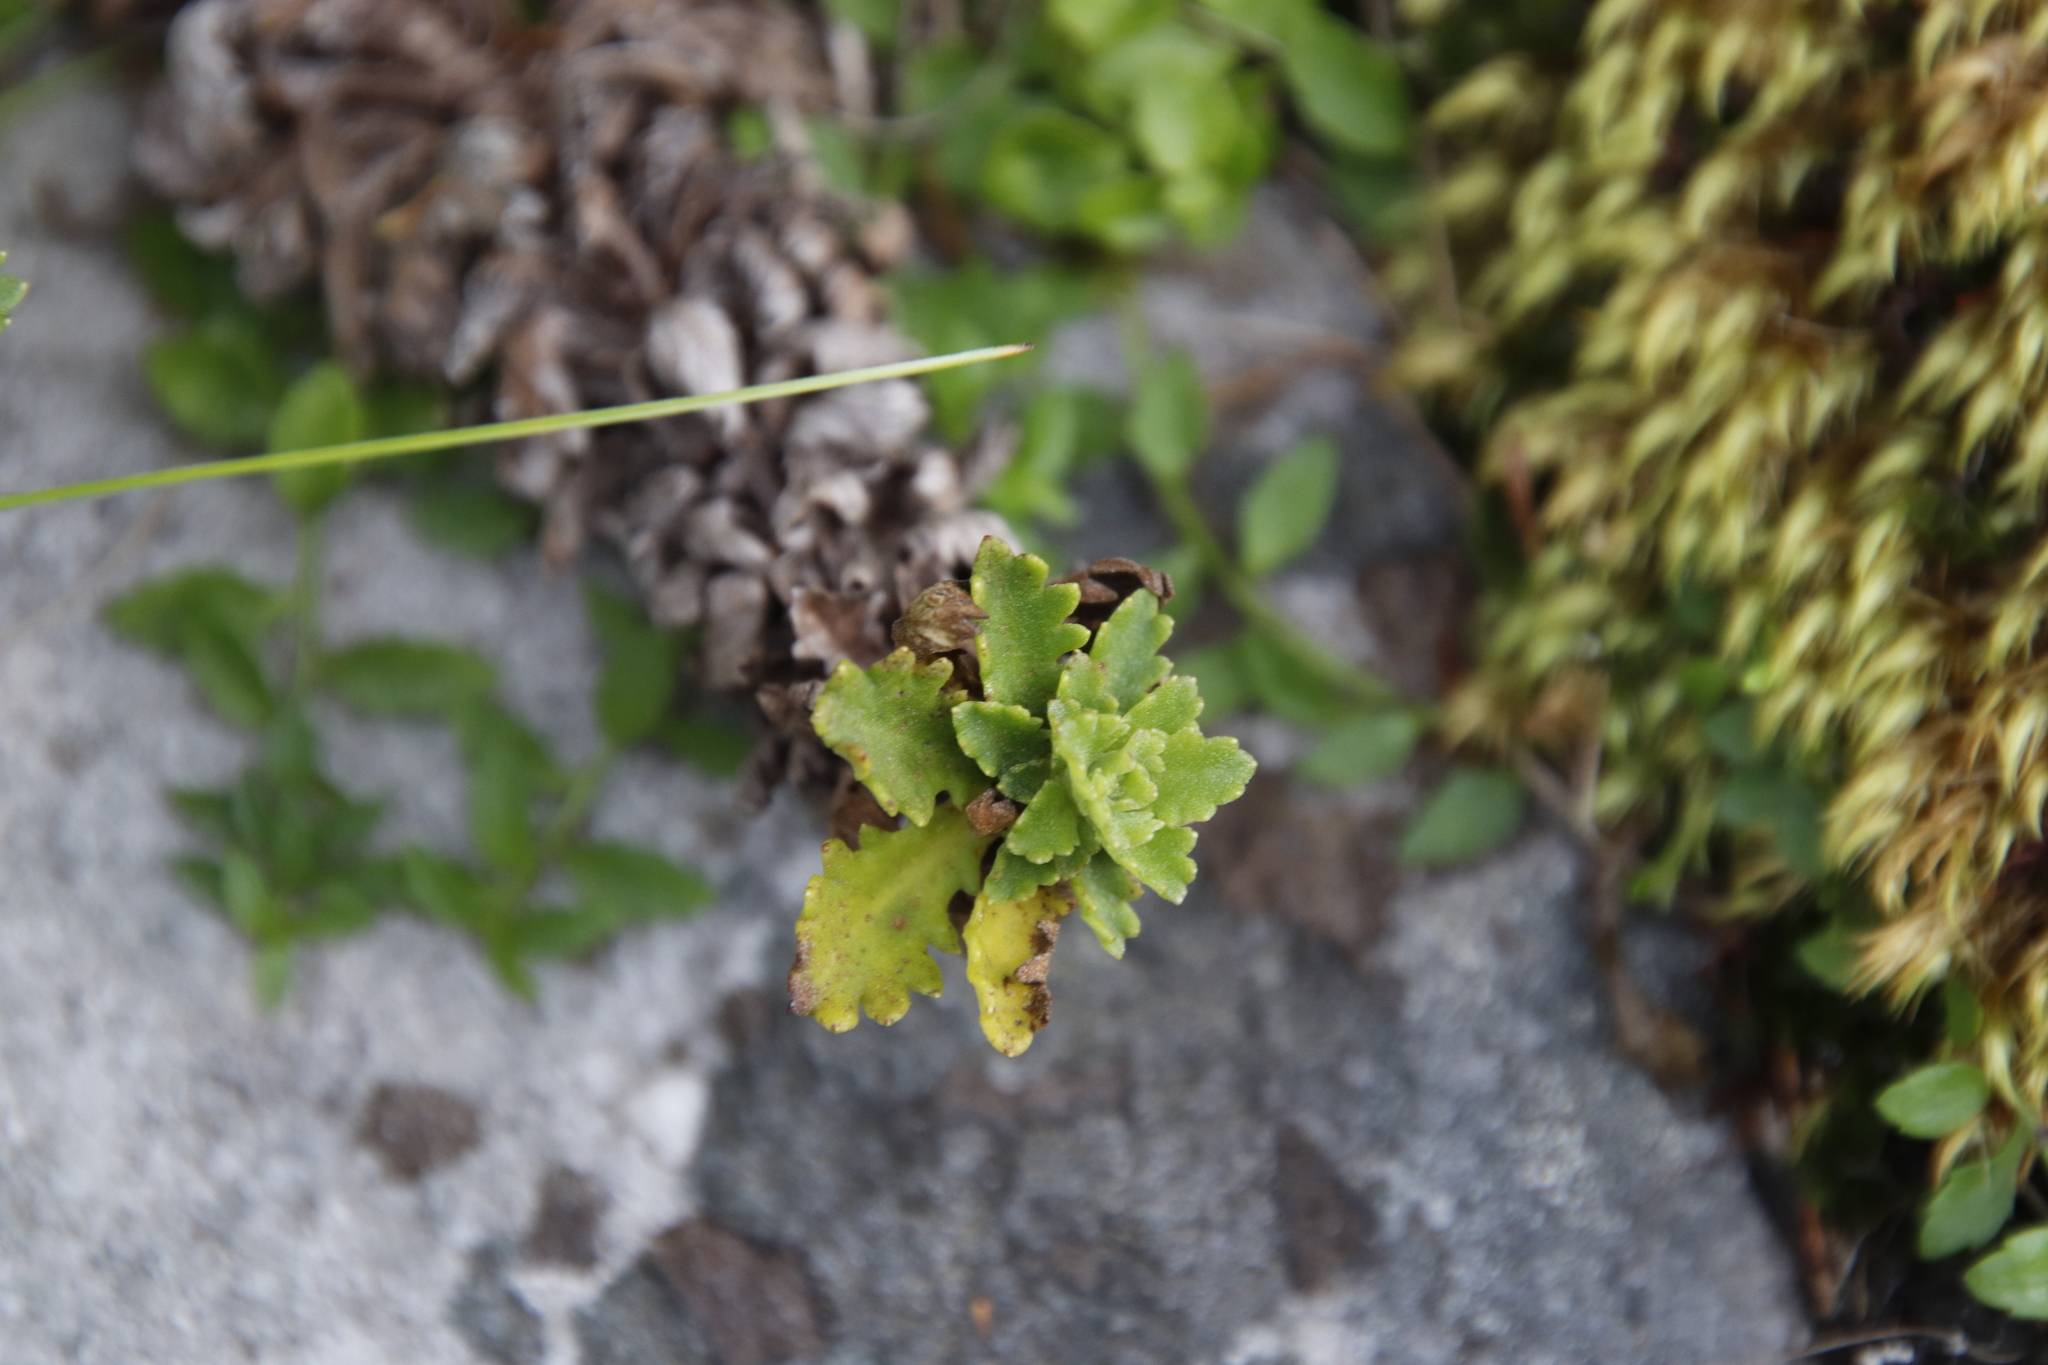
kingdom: Plantae
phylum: Tracheophyta
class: Magnoliopsida
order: Asterales
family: Asteraceae
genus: Osmitopsis
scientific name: Osmitopsis dentata
